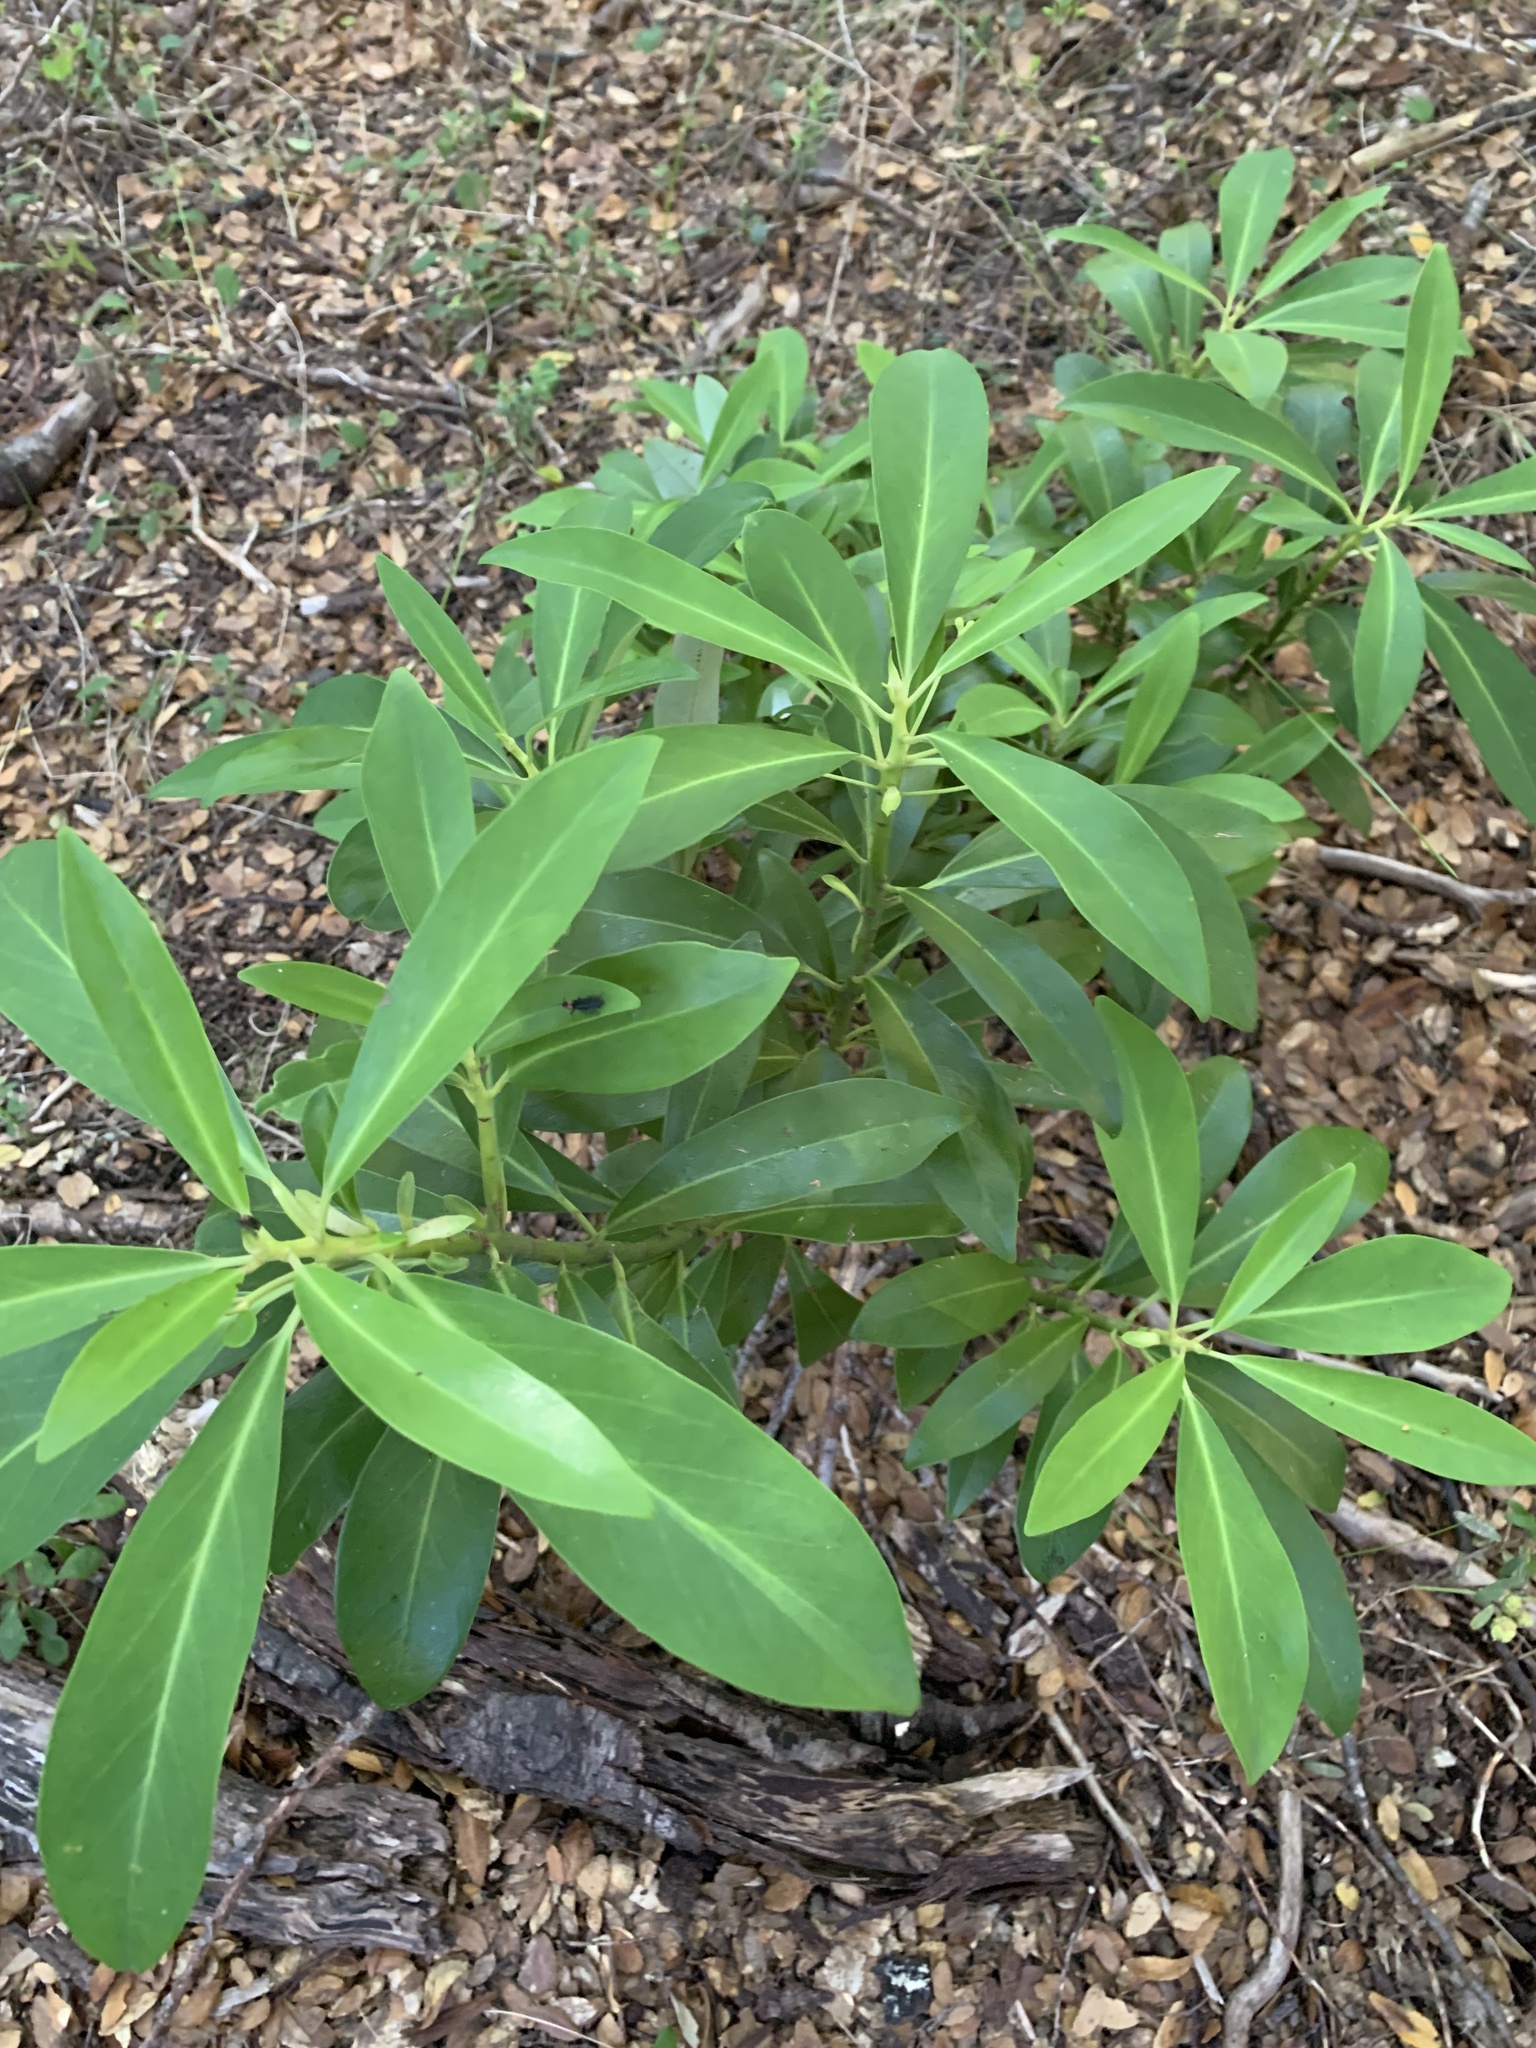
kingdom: Plantae
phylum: Tracheophyta
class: Magnoliopsida
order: Canellales
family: Winteraceae
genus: Drimys
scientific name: Drimys andina
